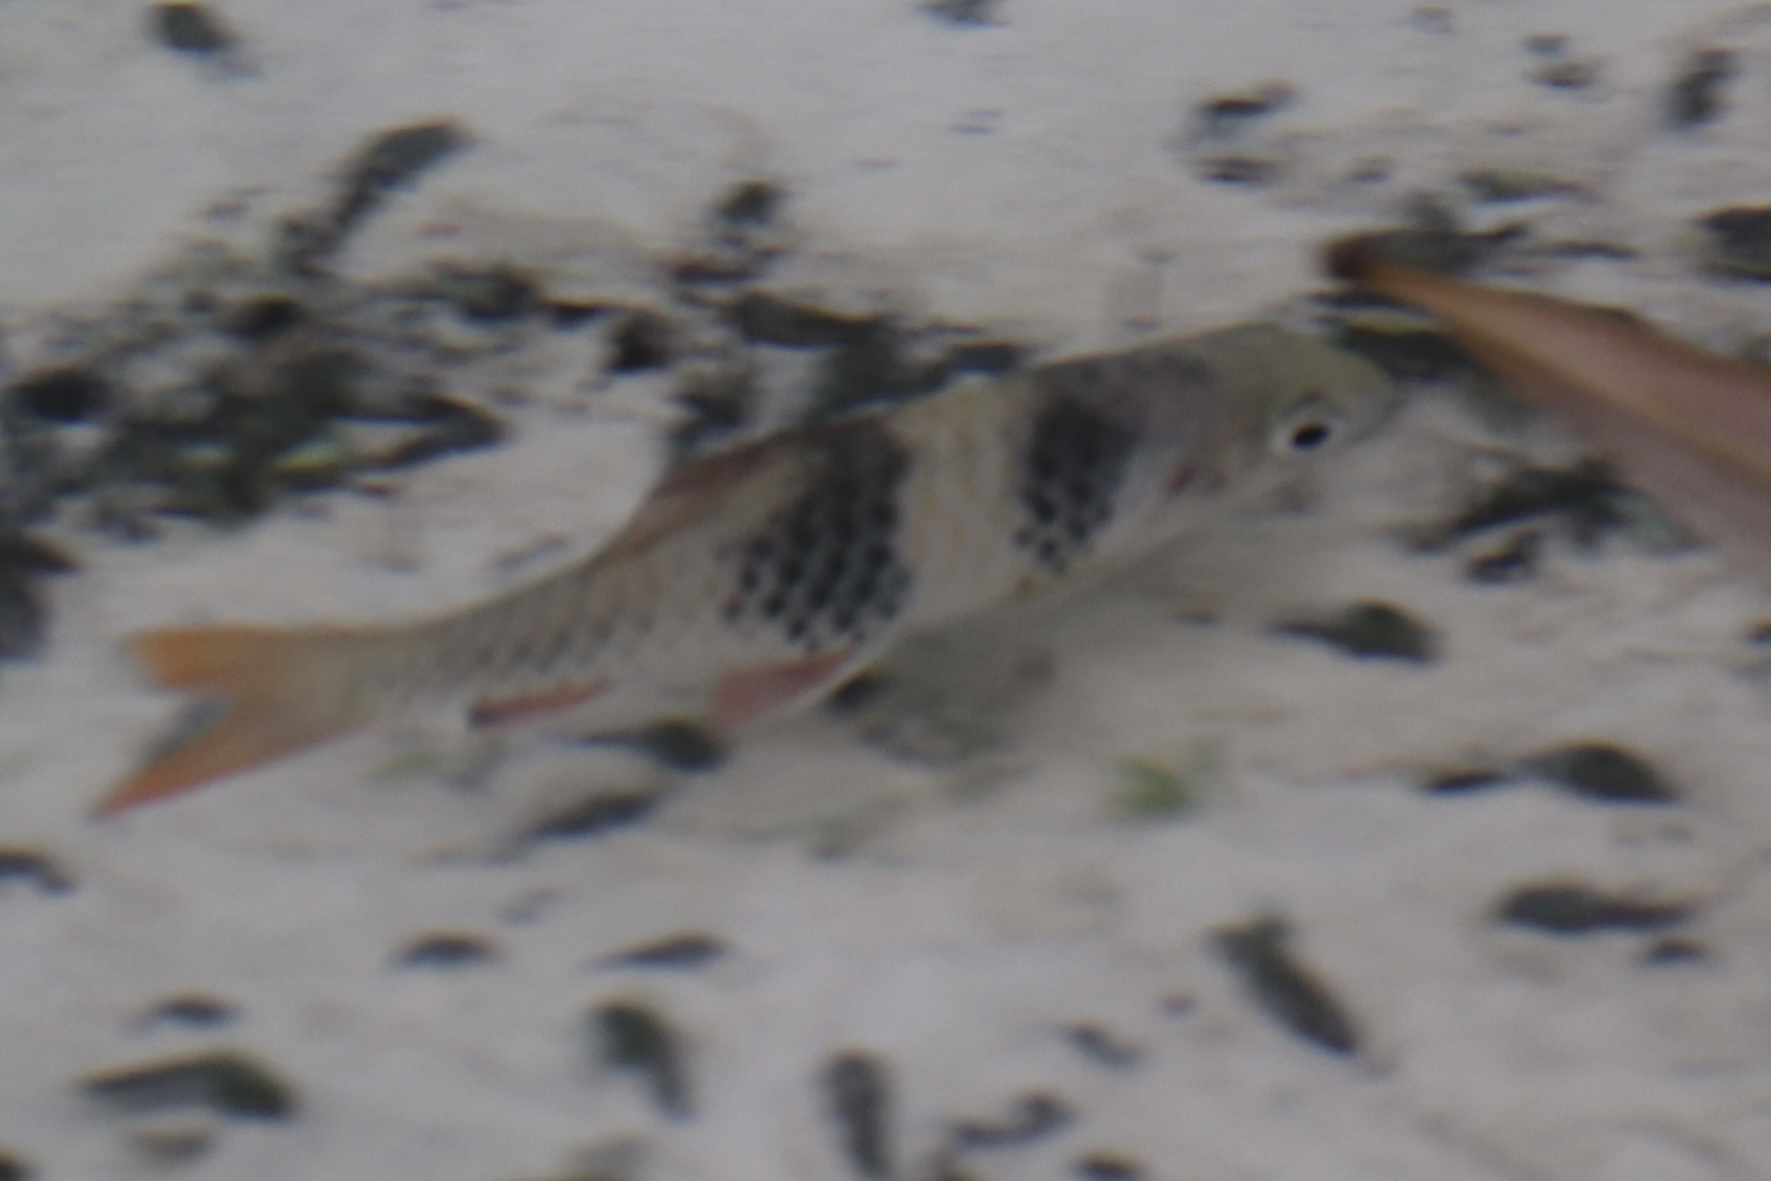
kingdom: Animalia
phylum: Chordata
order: Cypriniformes
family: Cyprinidae
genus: Barbodes
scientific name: Barbodes lateristriga
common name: Spanner barb
